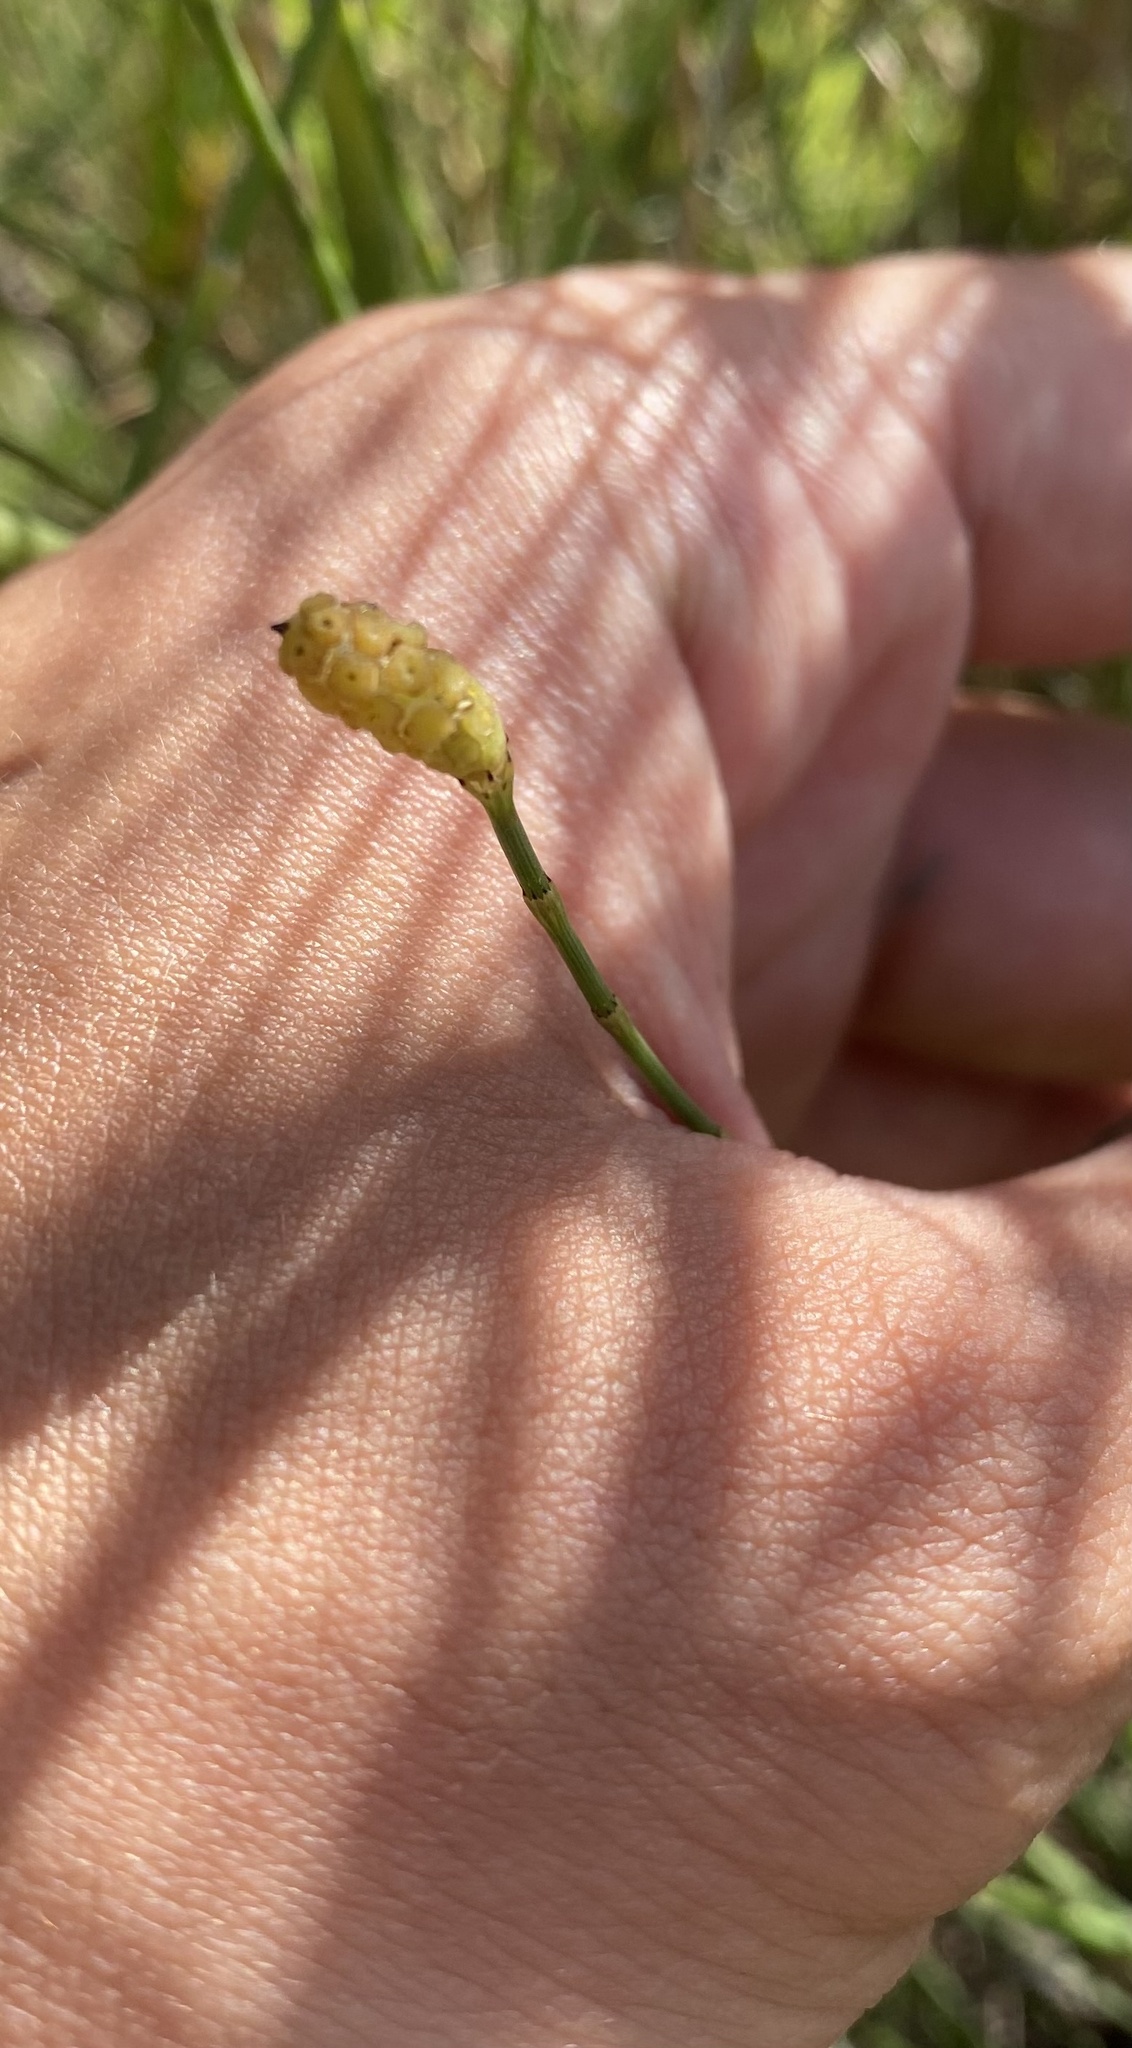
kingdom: Plantae
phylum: Tracheophyta
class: Polypodiopsida
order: Equisetales
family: Equisetaceae
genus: Equisetum
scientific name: Equisetum ramosissimum
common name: Branched horsetail
